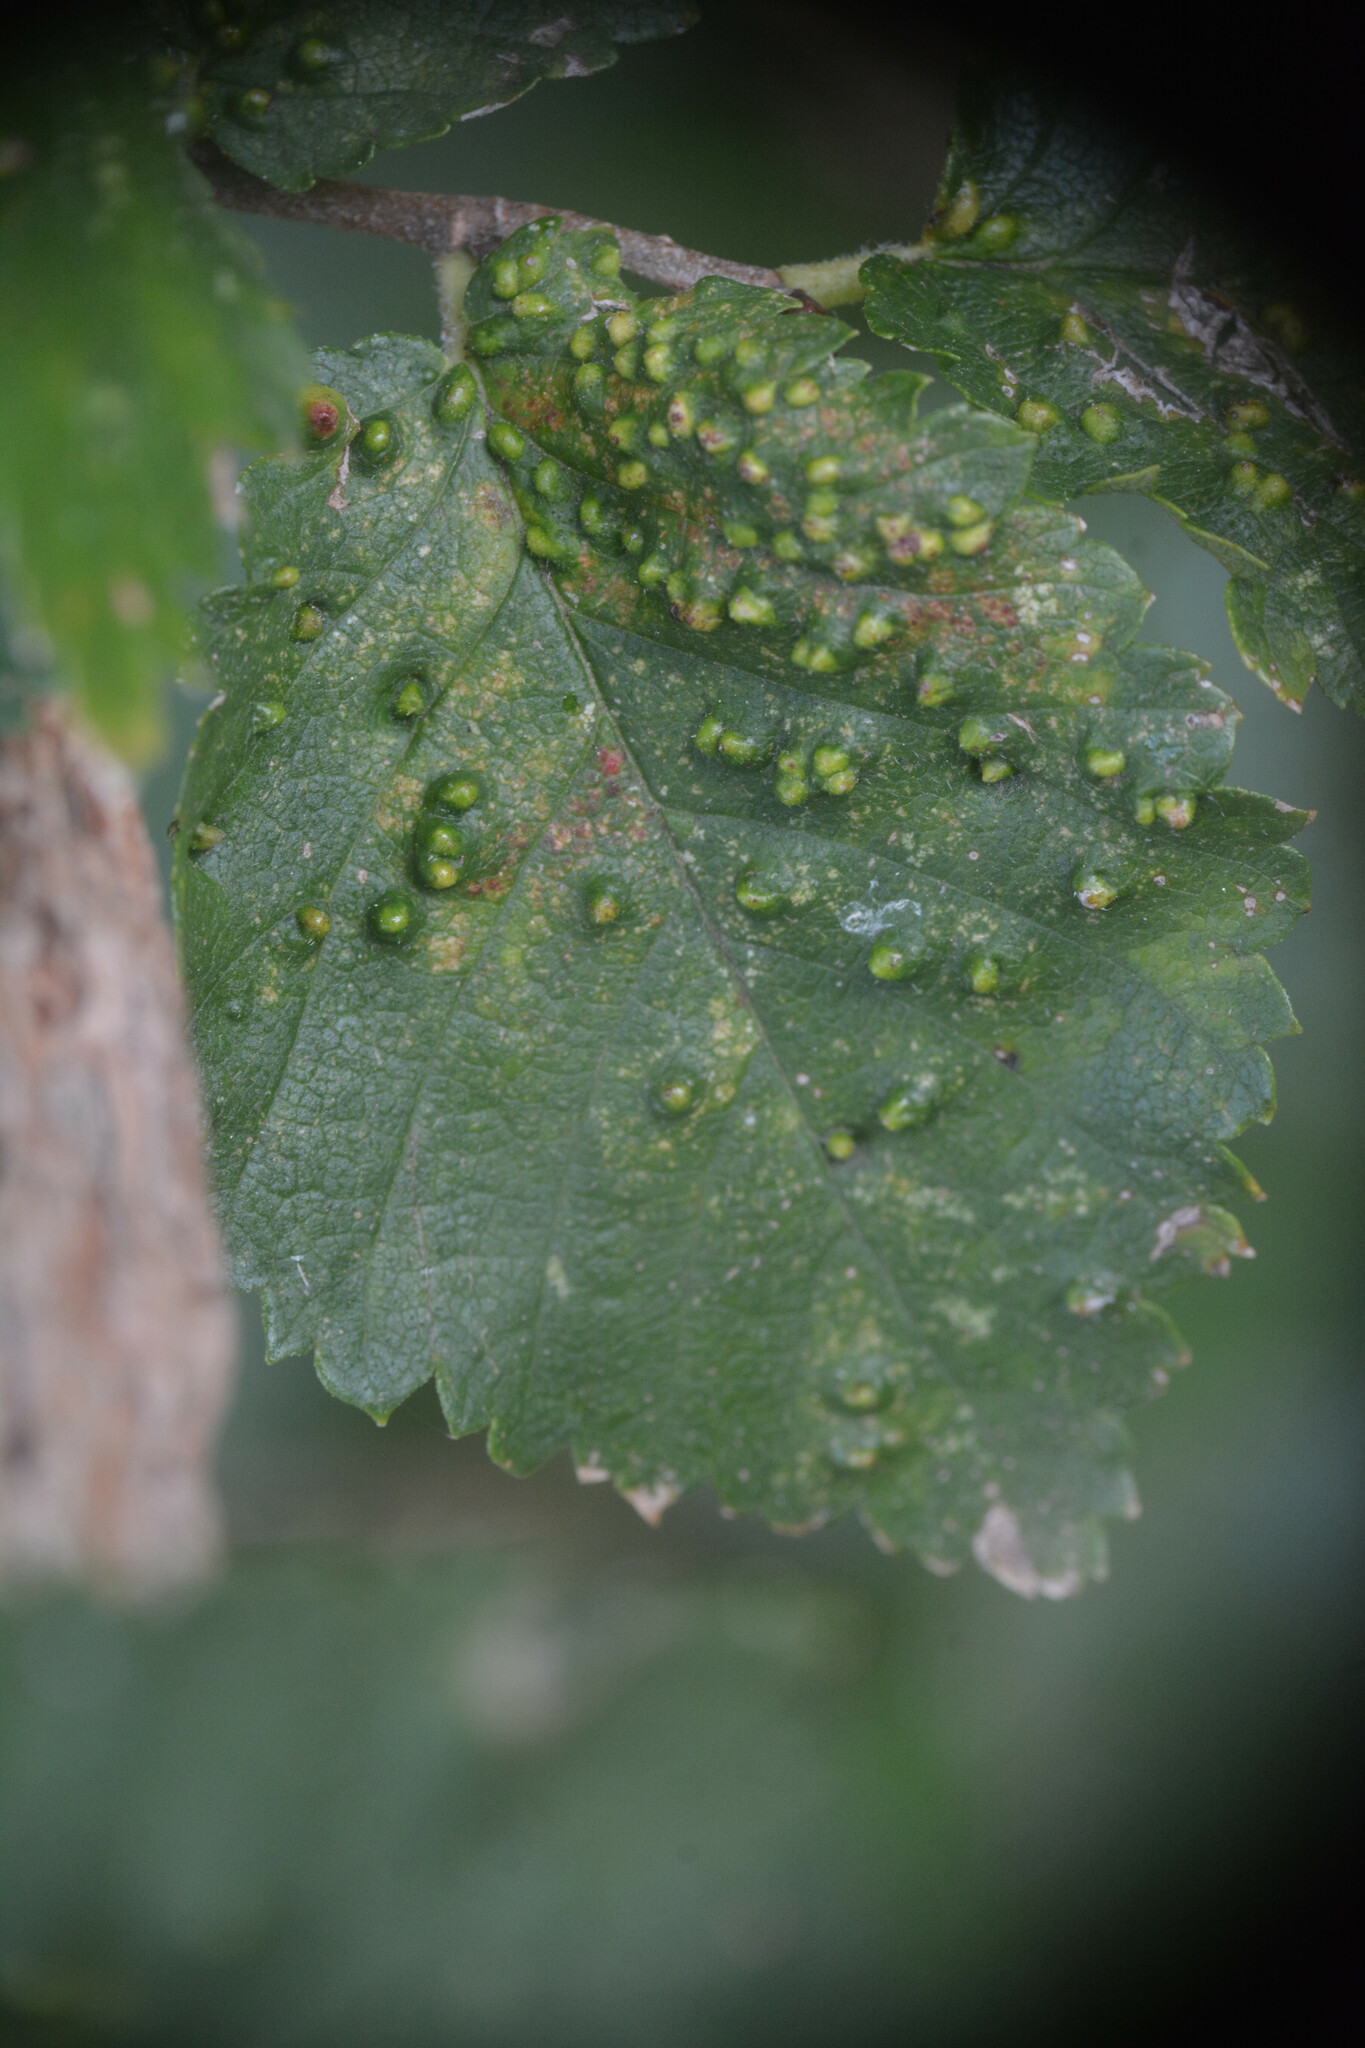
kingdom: Animalia
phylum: Arthropoda
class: Arachnida
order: Trombidiformes
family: Eriophyidae
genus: Aceria
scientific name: Aceria brevipunctata
